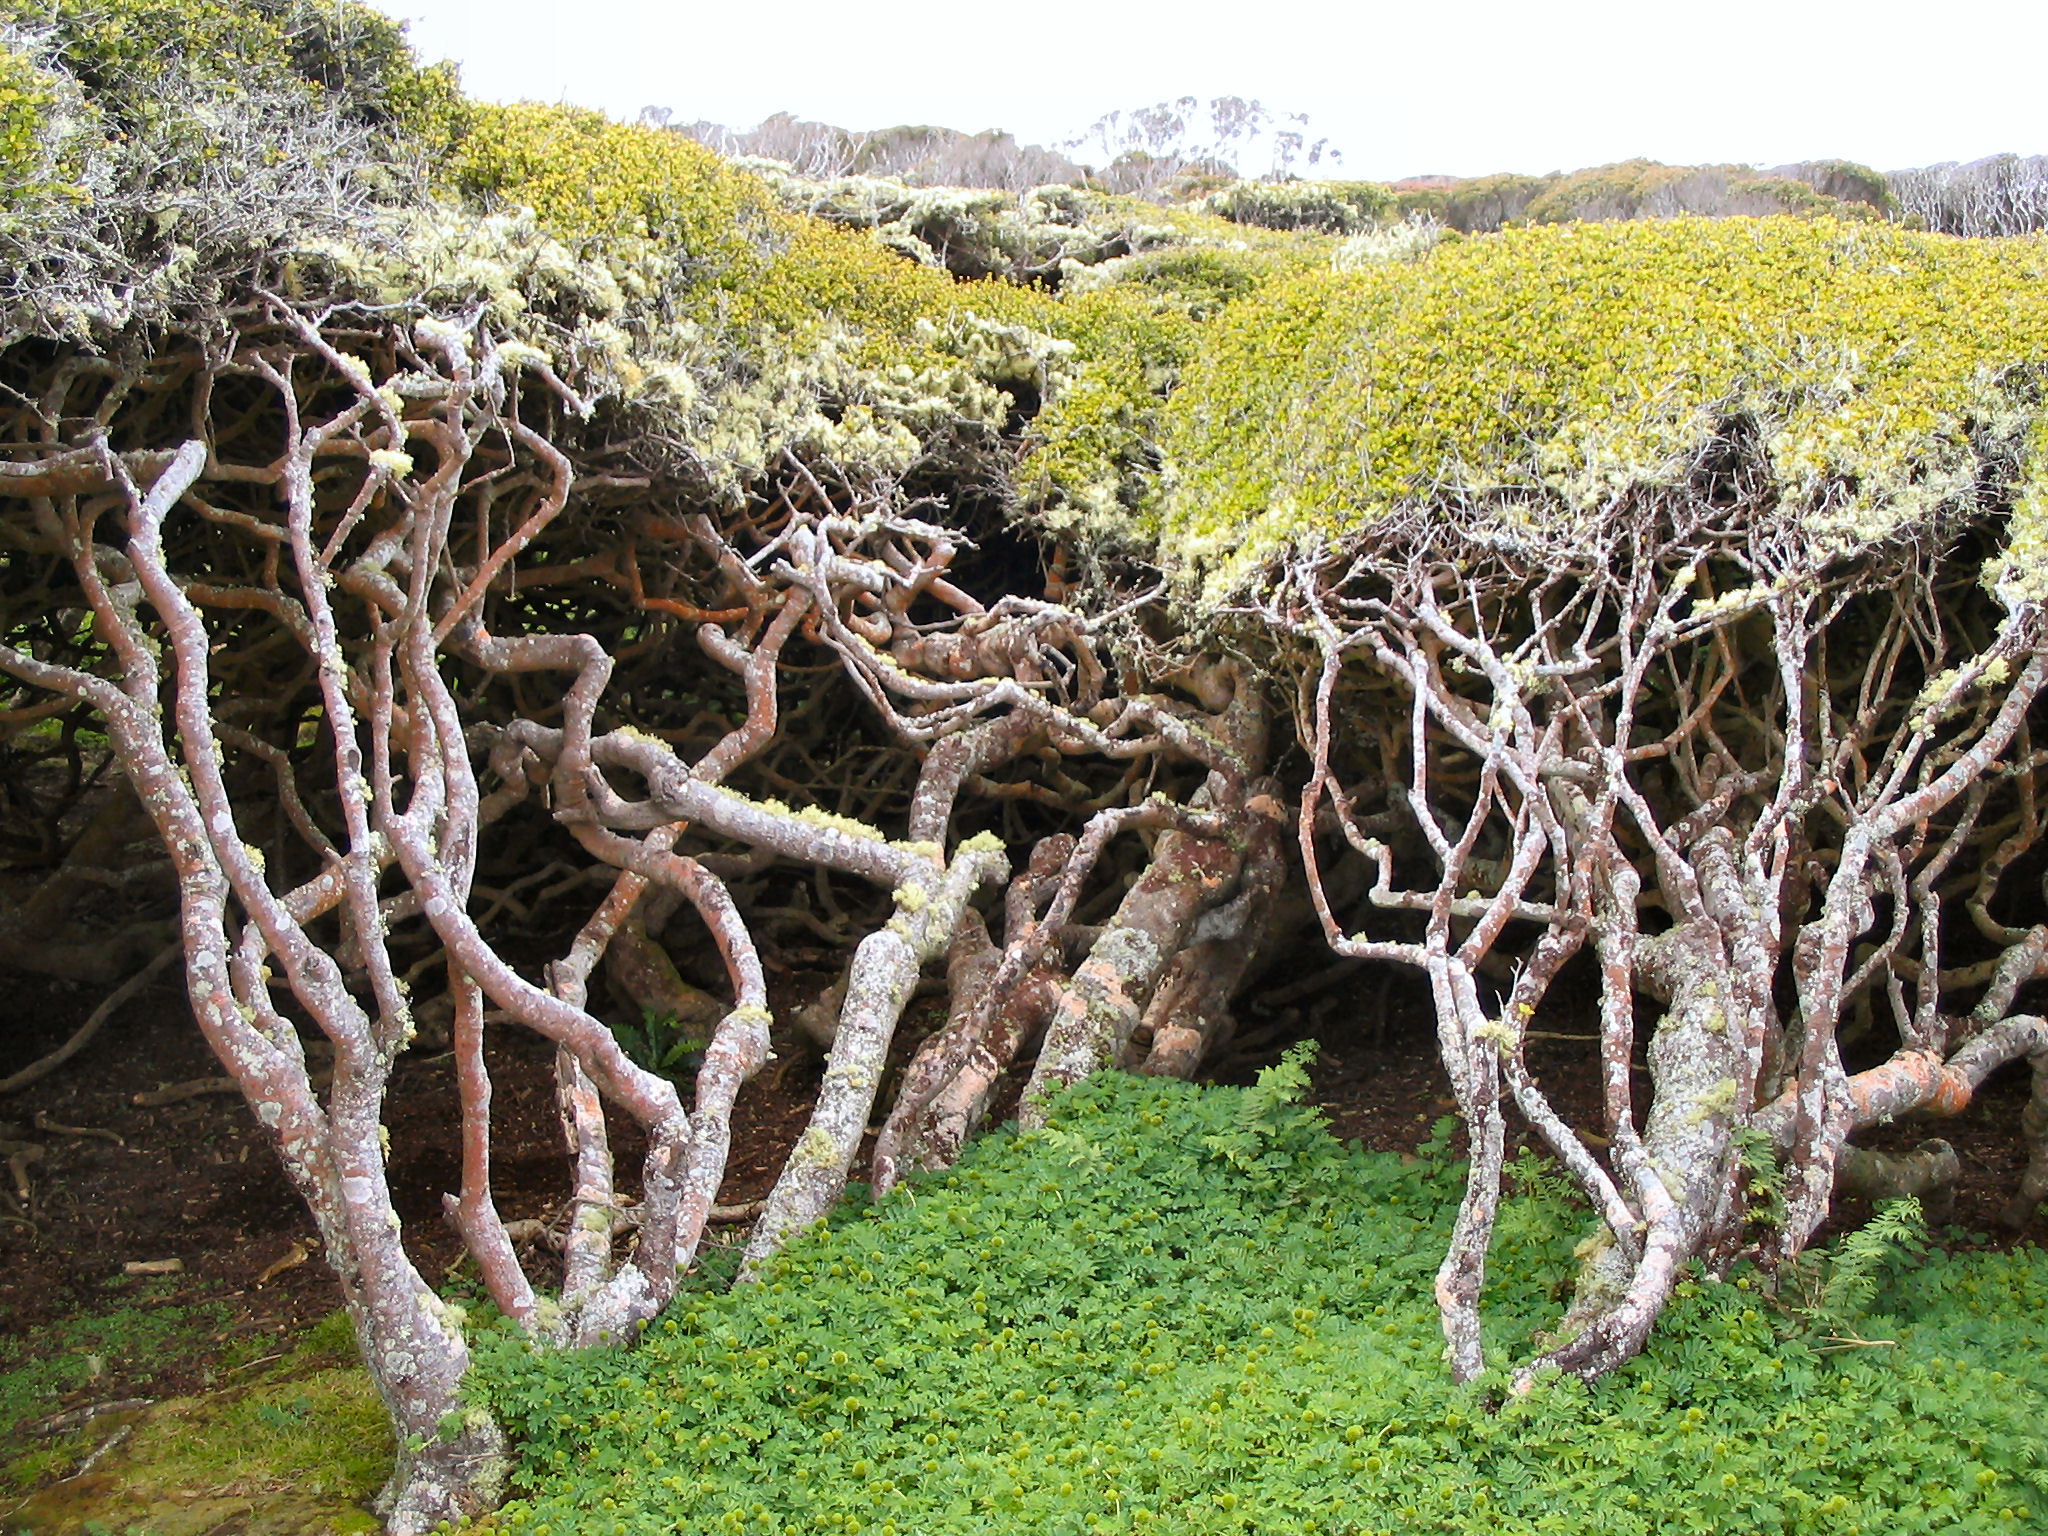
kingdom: Plantae
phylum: Tracheophyta
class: Magnoliopsida
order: Ericales
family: Primulaceae
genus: Myrsine
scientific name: Myrsine divaricata
